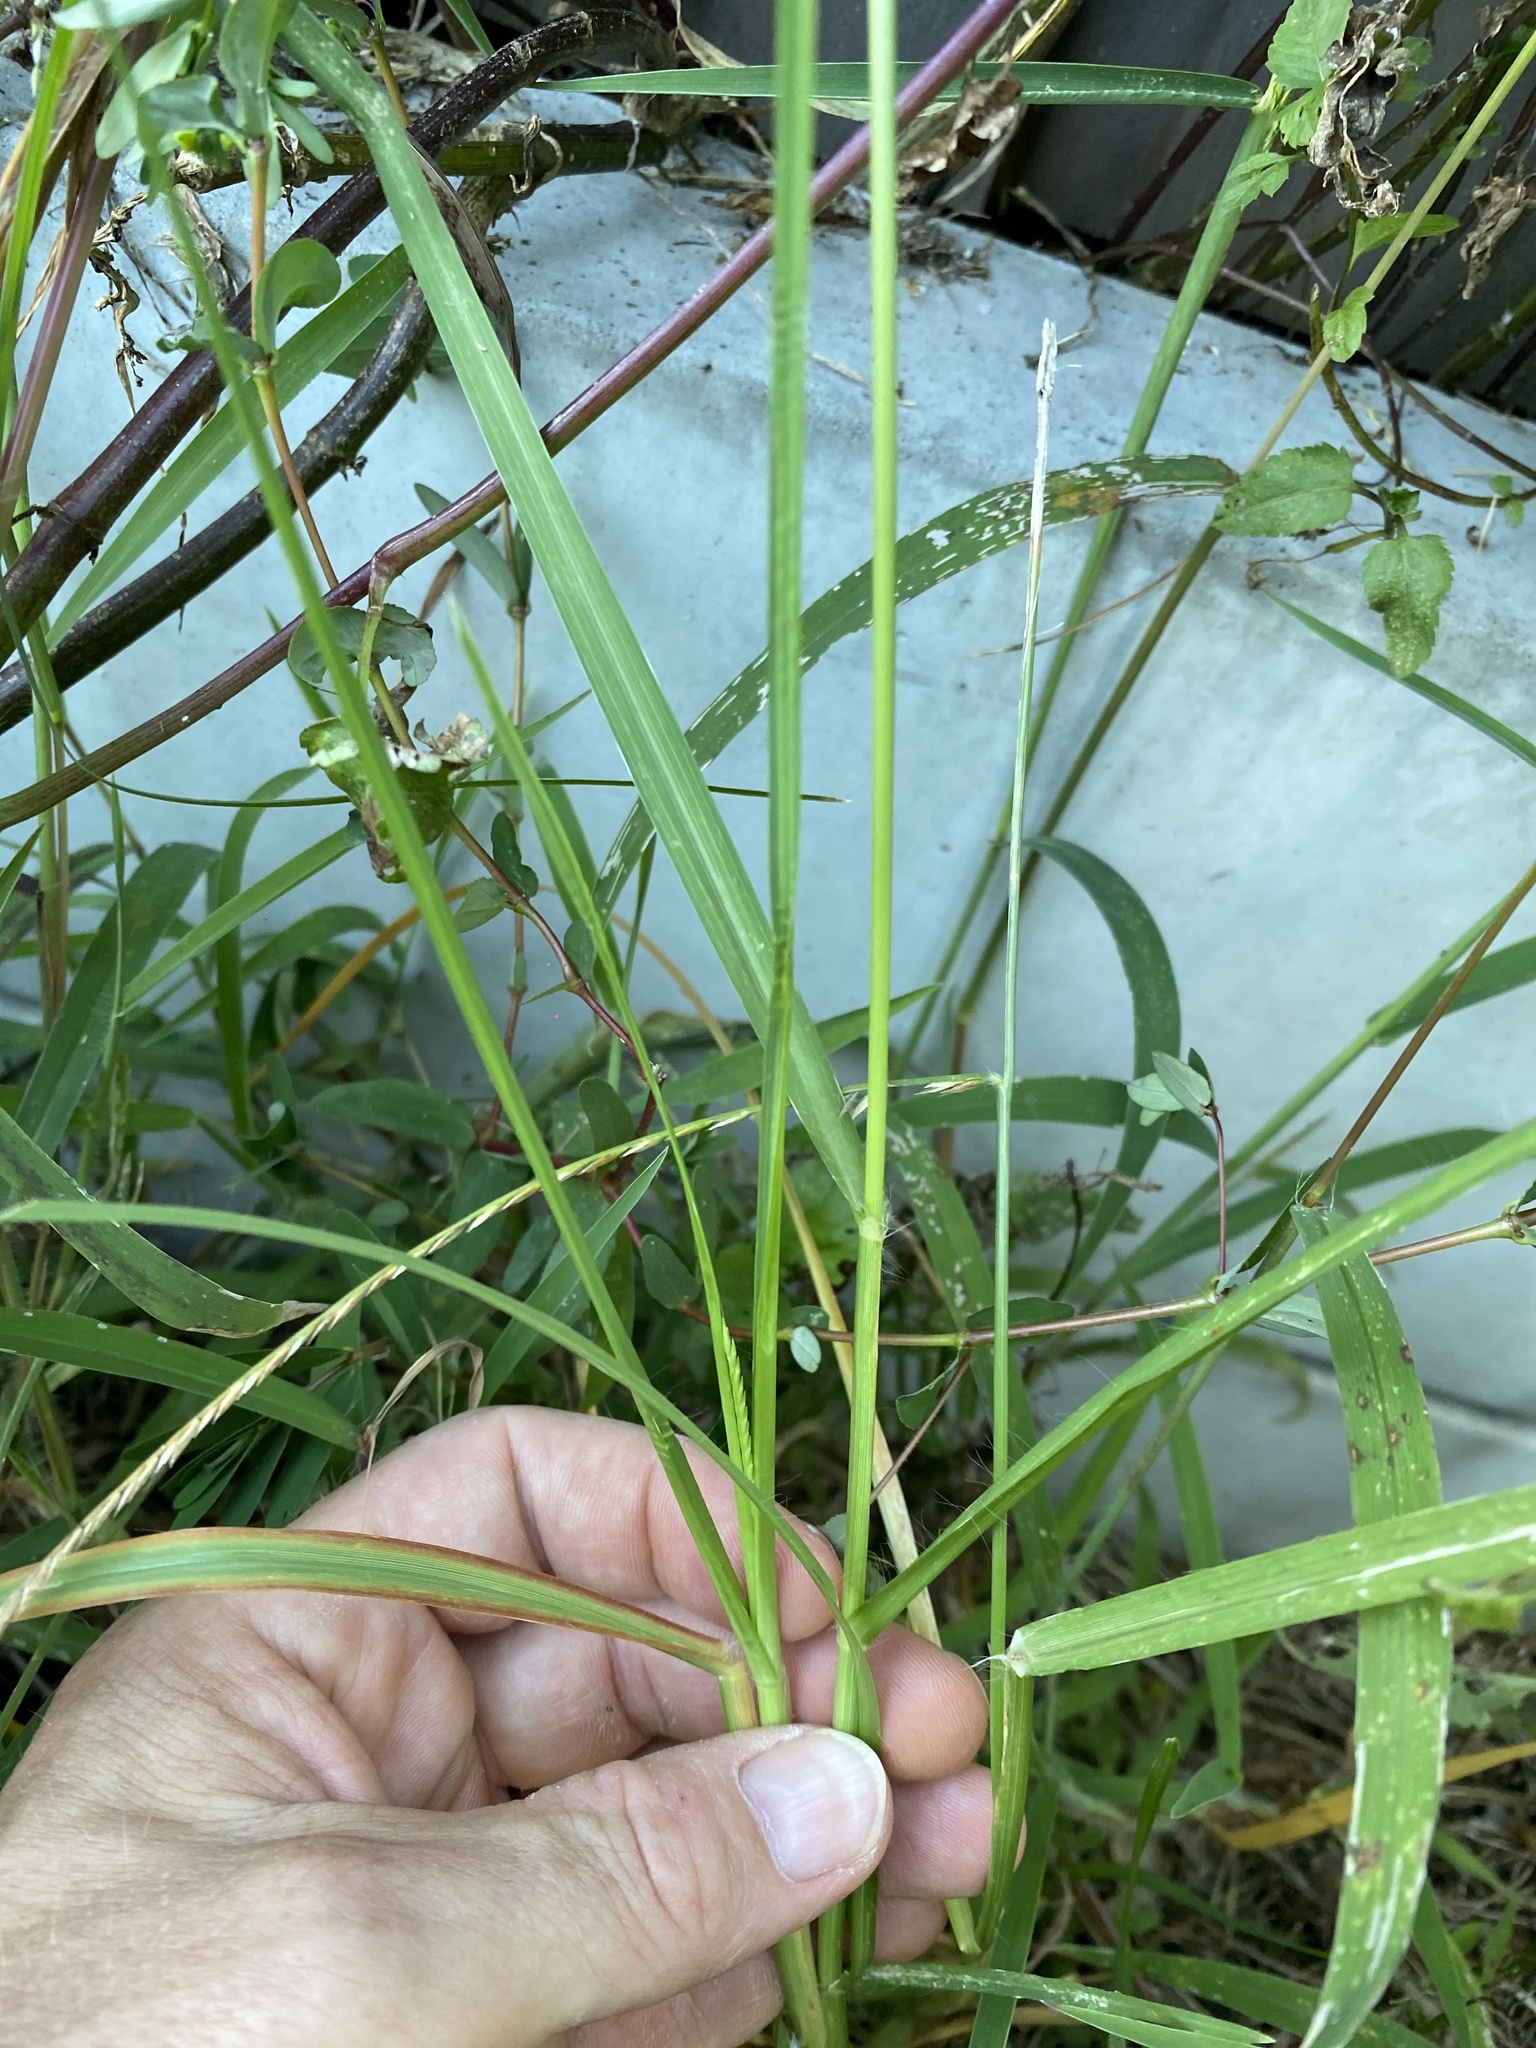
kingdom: Plantae
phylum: Tracheophyta
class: Liliopsida
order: Poales
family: Poaceae
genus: Eleusine
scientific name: Eleusine indica
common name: Yard-grass
